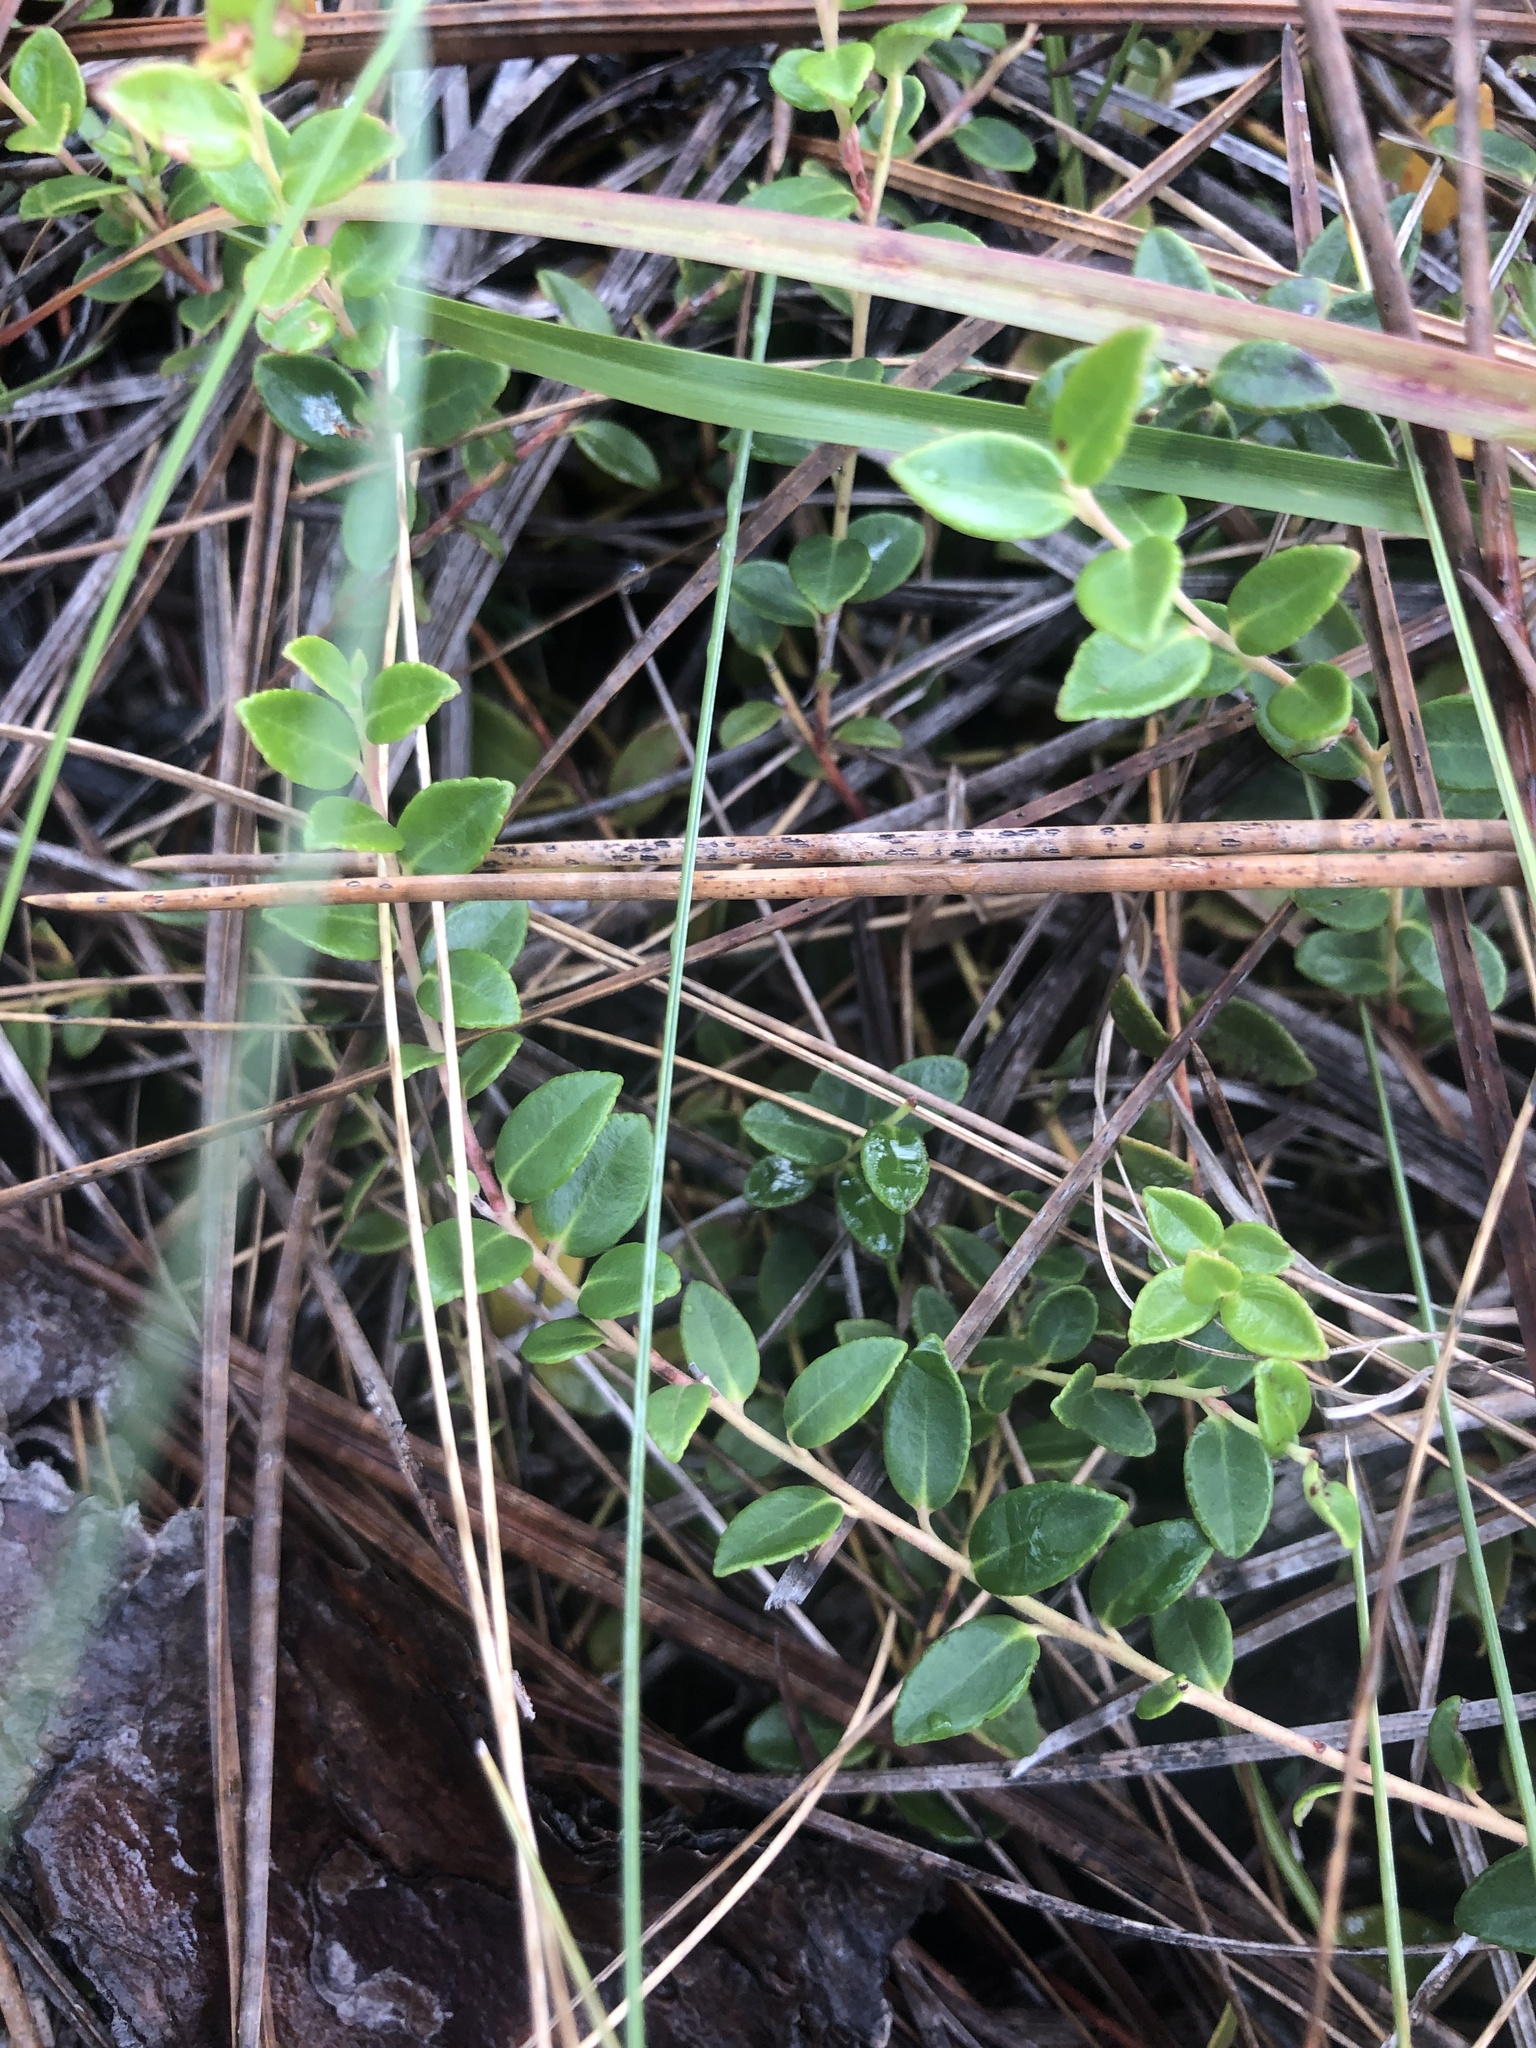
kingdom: Plantae
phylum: Tracheophyta
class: Magnoliopsida
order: Ericales
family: Ericaceae
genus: Vaccinium
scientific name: Vaccinium crassifolium
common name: Creeping blueberry
